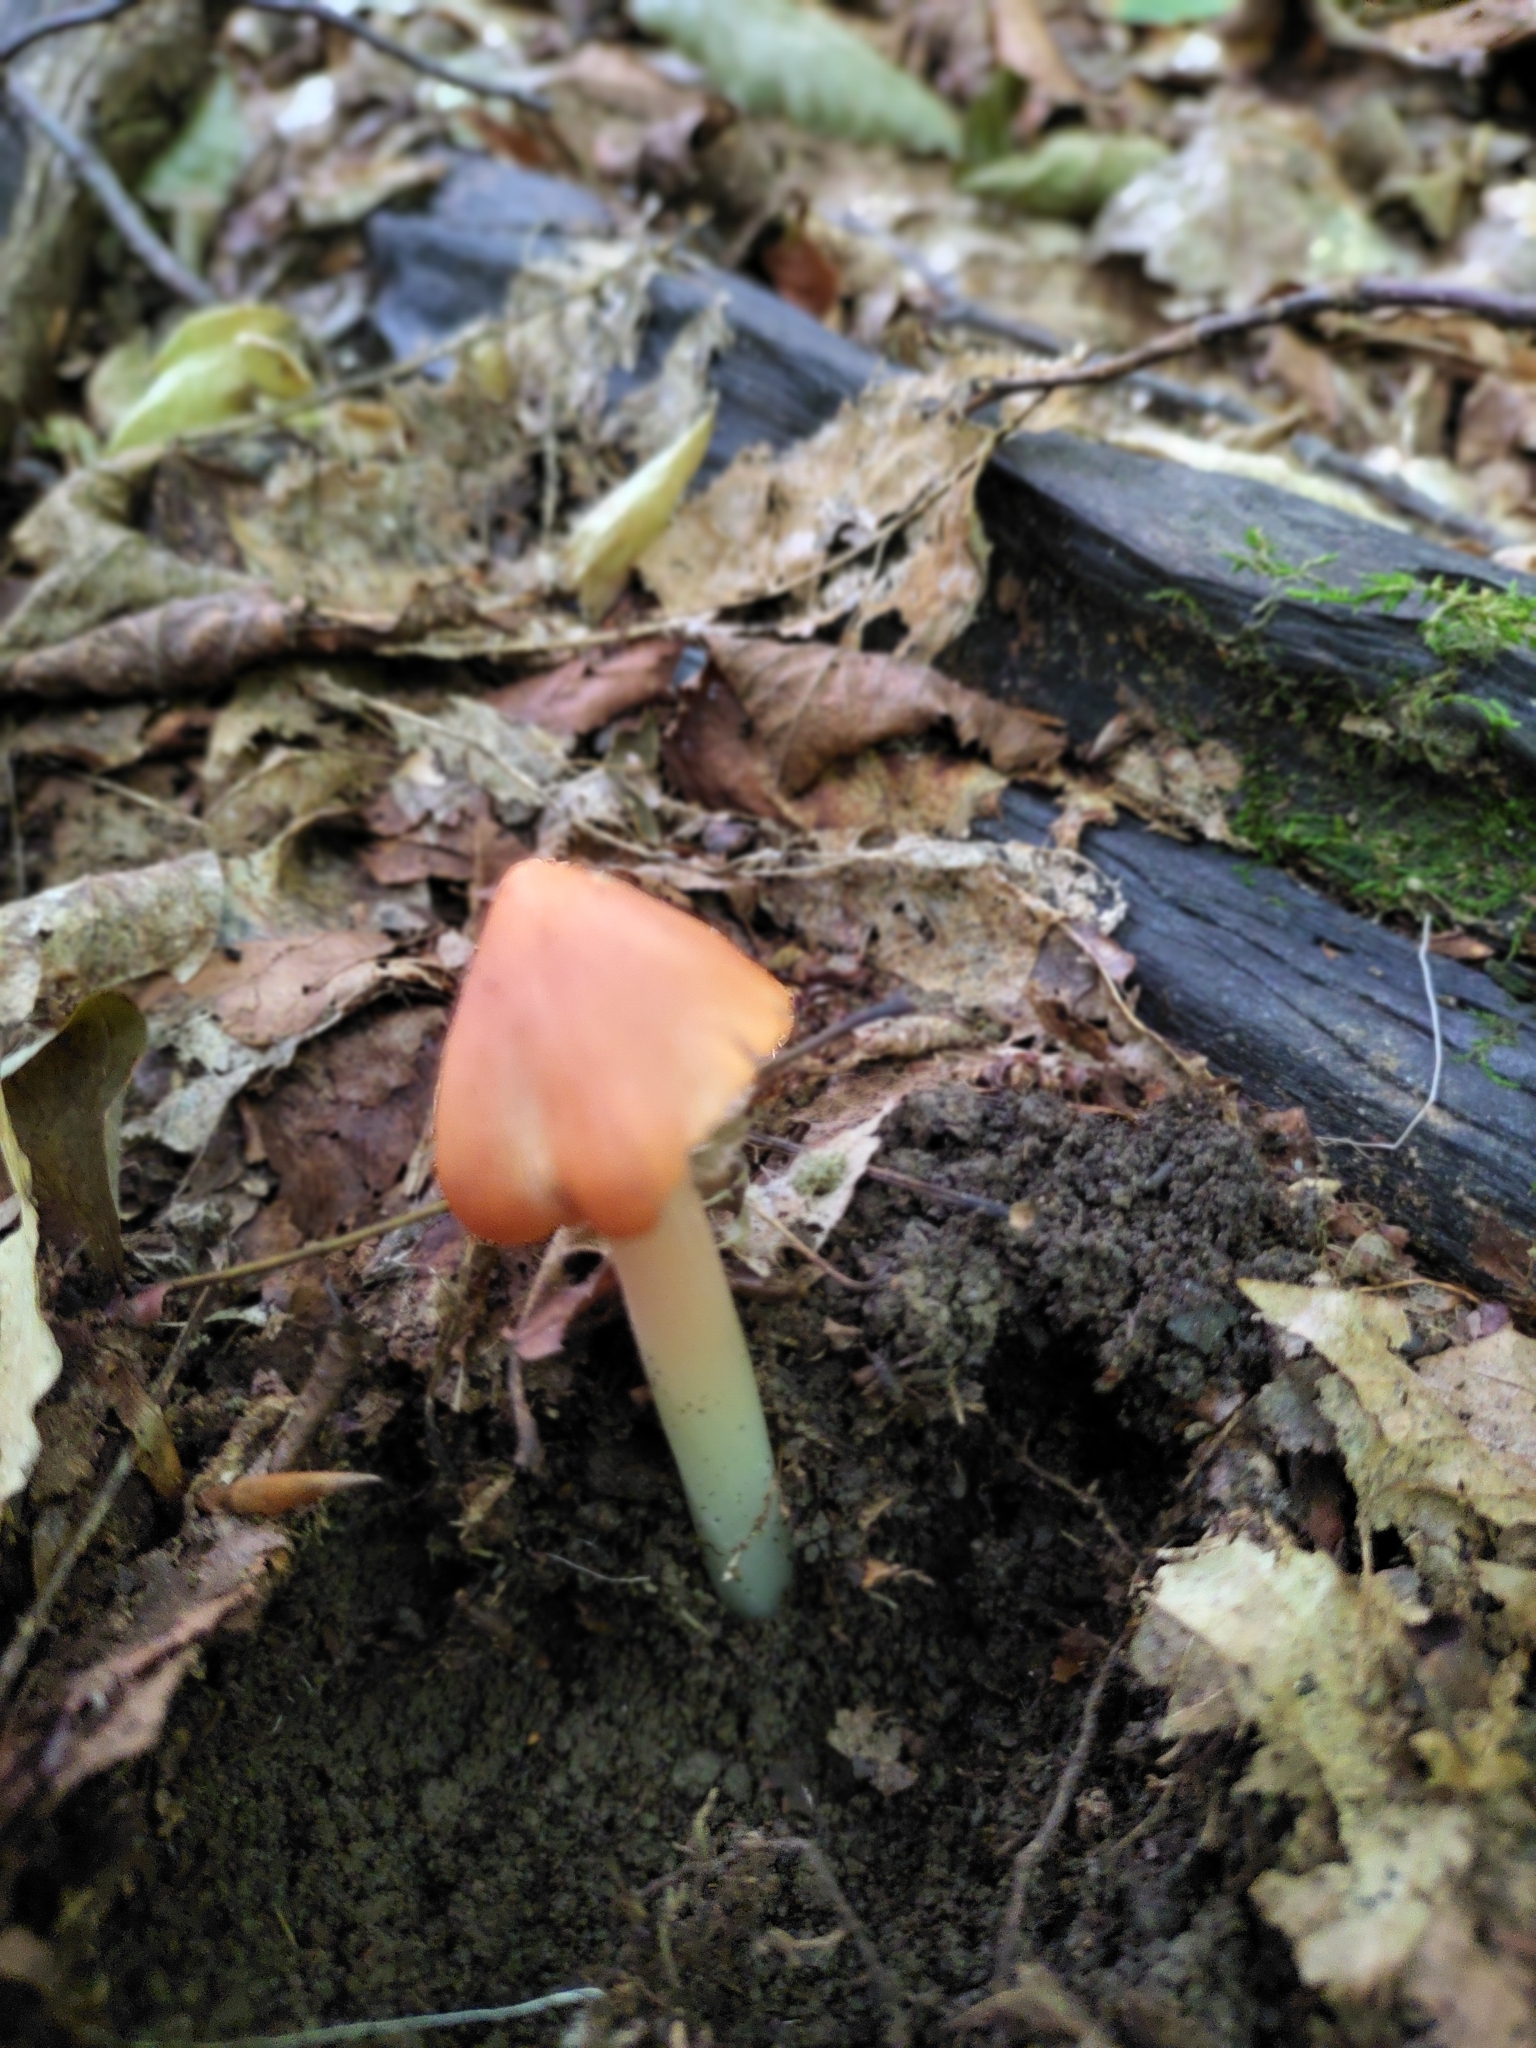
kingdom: Fungi
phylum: Basidiomycota
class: Agaricomycetes
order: Agaricales
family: Hygrophoraceae
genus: Porpolomopsis
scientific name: Porpolomopsis calyptriformis
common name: Pink waxcap
